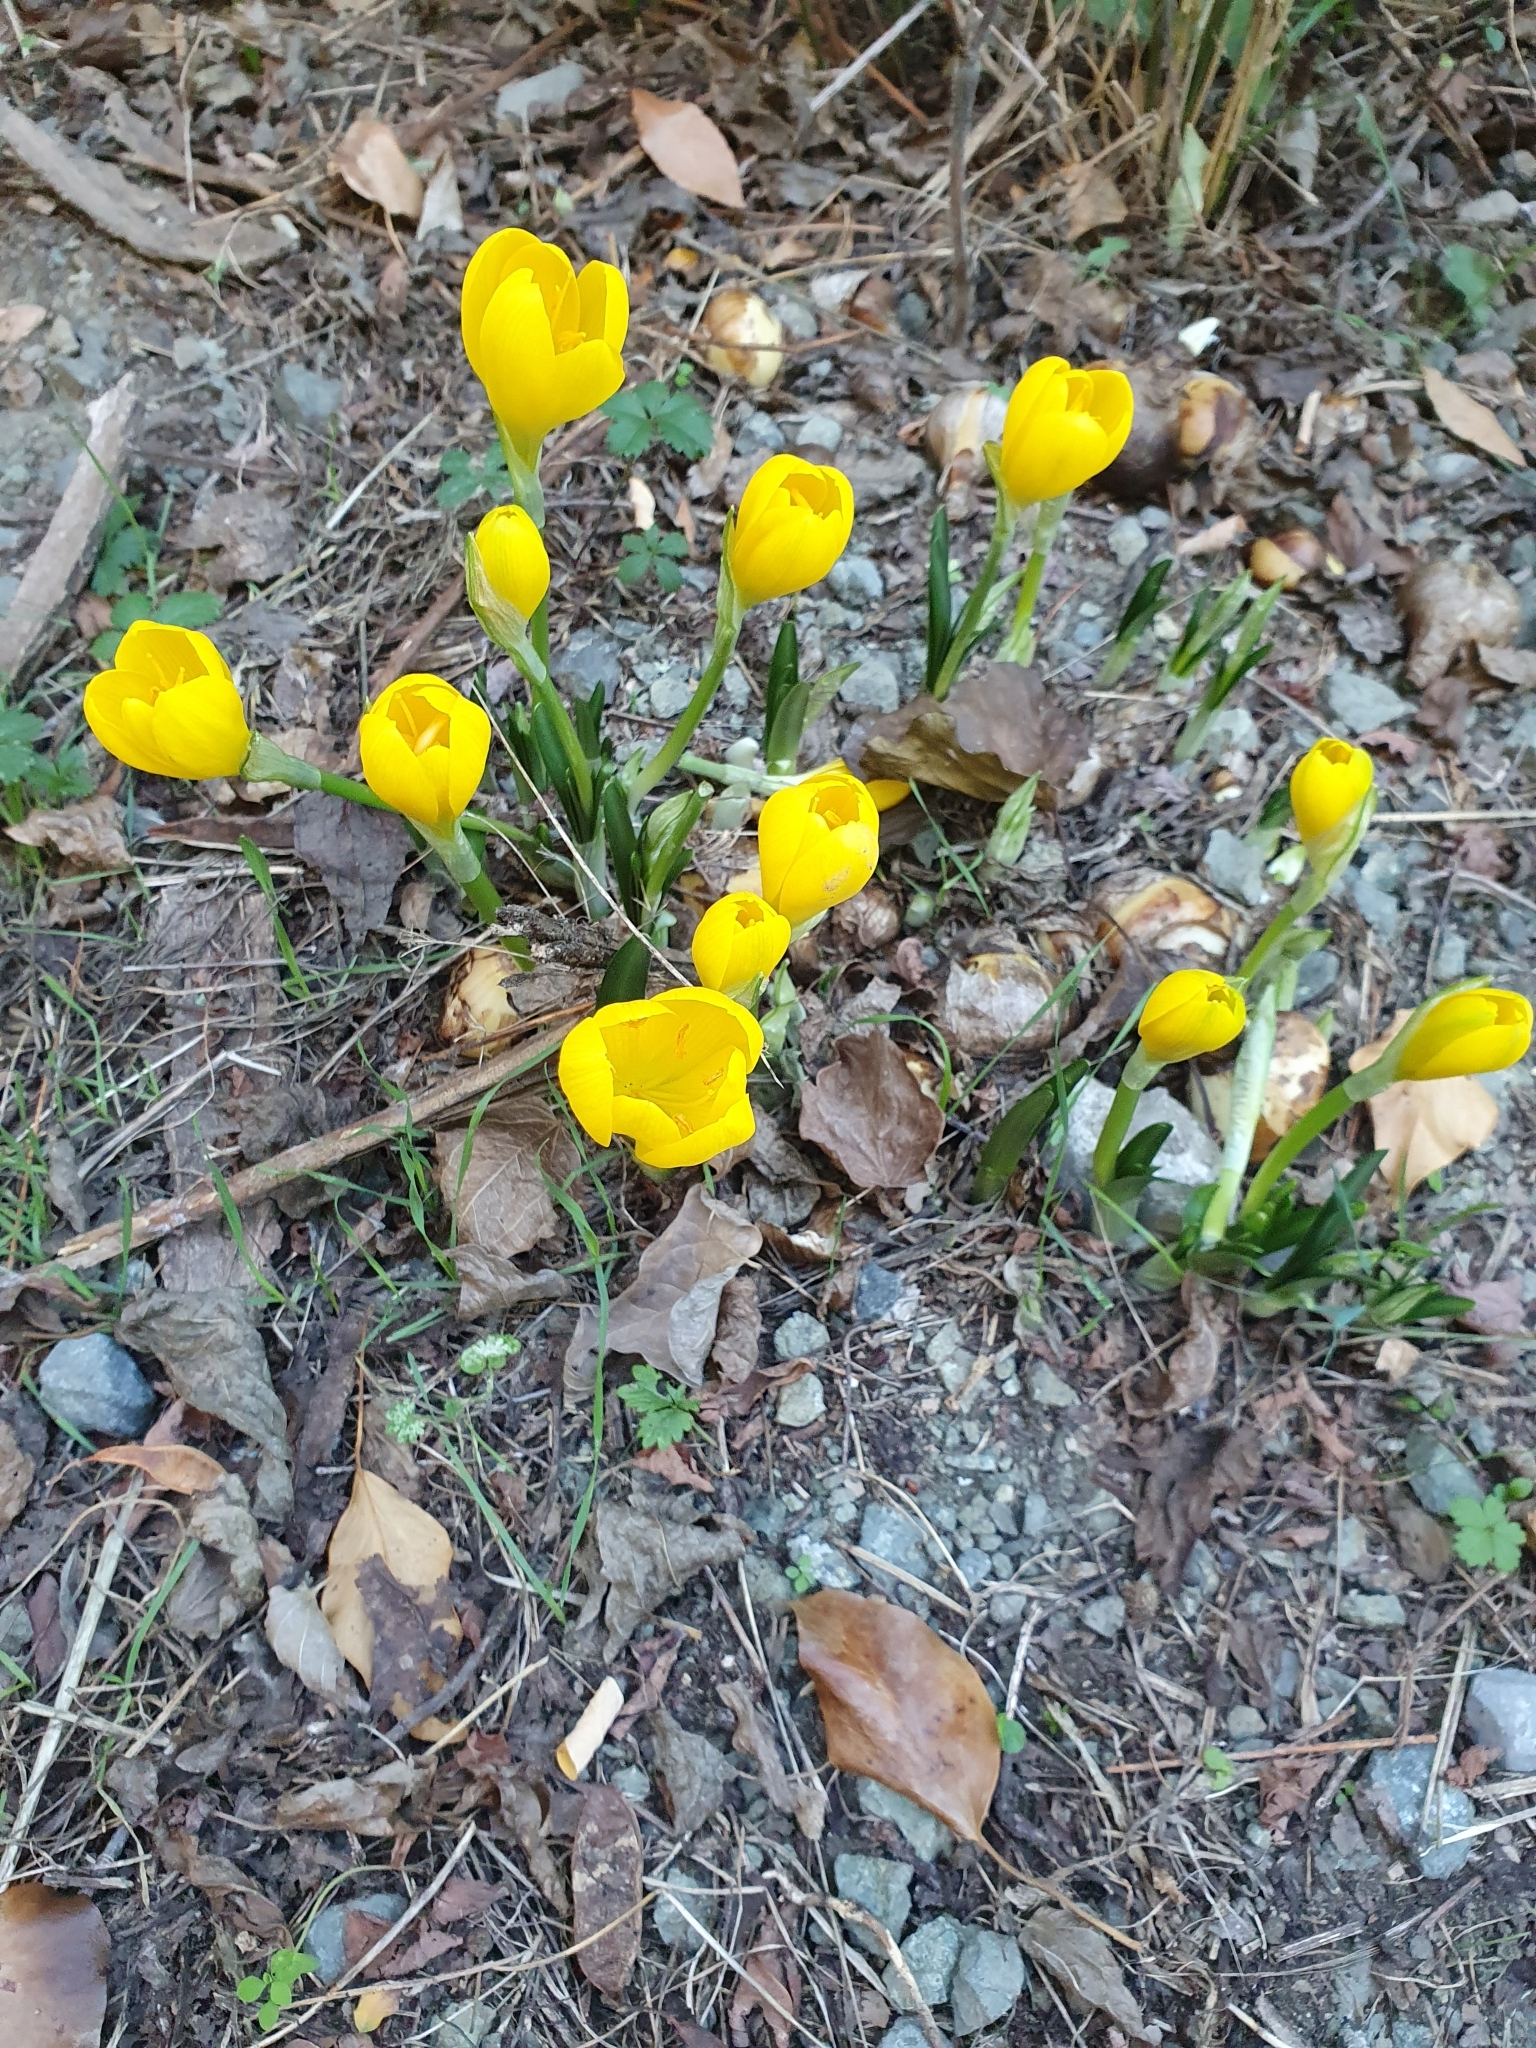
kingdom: Plantae
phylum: Tracheophyta
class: Liliopsida
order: Asparagales
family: Amaryllidaceae
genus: Sternbergia
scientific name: Sternbergia lutea
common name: Winter daffodil
